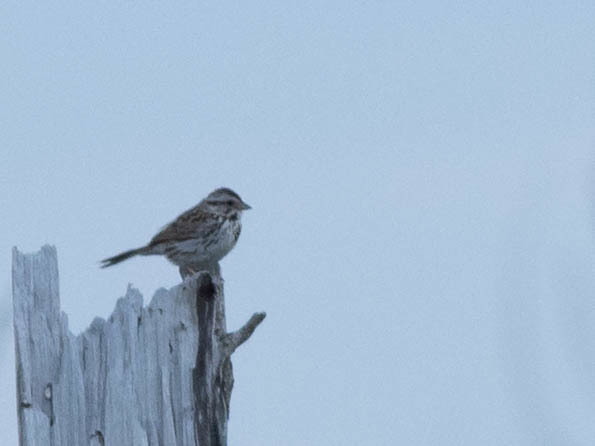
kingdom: Animalia
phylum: Chordata
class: Aves
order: Passeriformes
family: Passerellidae
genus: Melospiza
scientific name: Melospiza melodia
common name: Song sparrow
